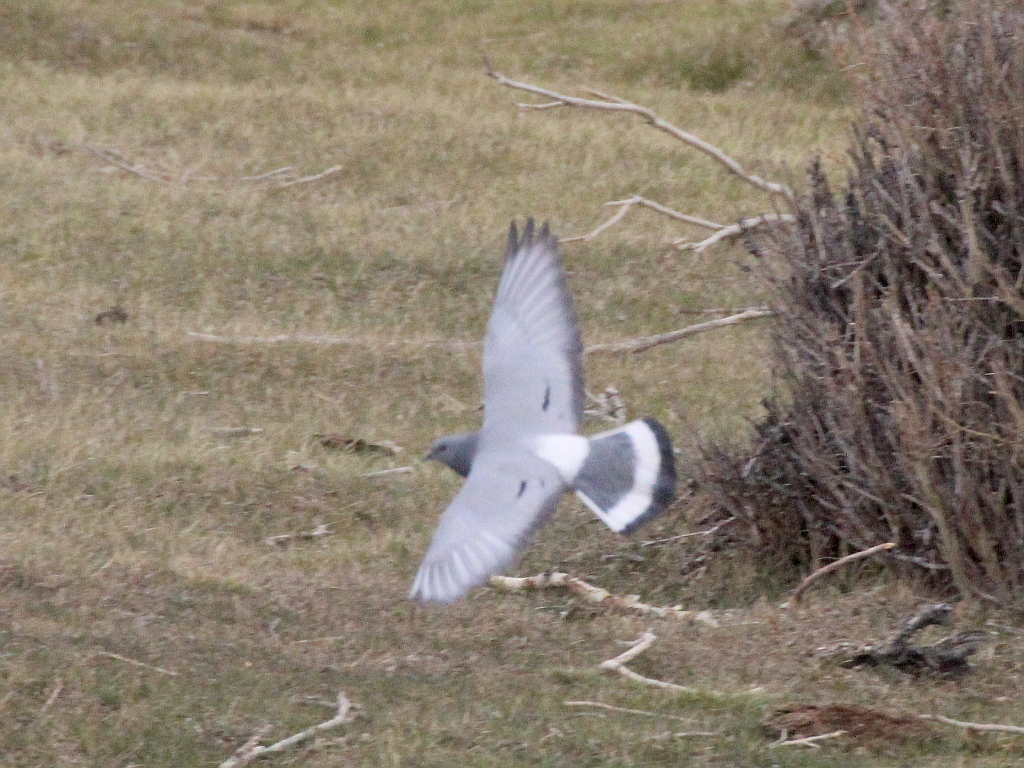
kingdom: Animalia
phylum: Chordata
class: Aves
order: Columbiformes
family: Columbidae
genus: Columba
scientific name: Columba rupestris
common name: Hill pigeon
